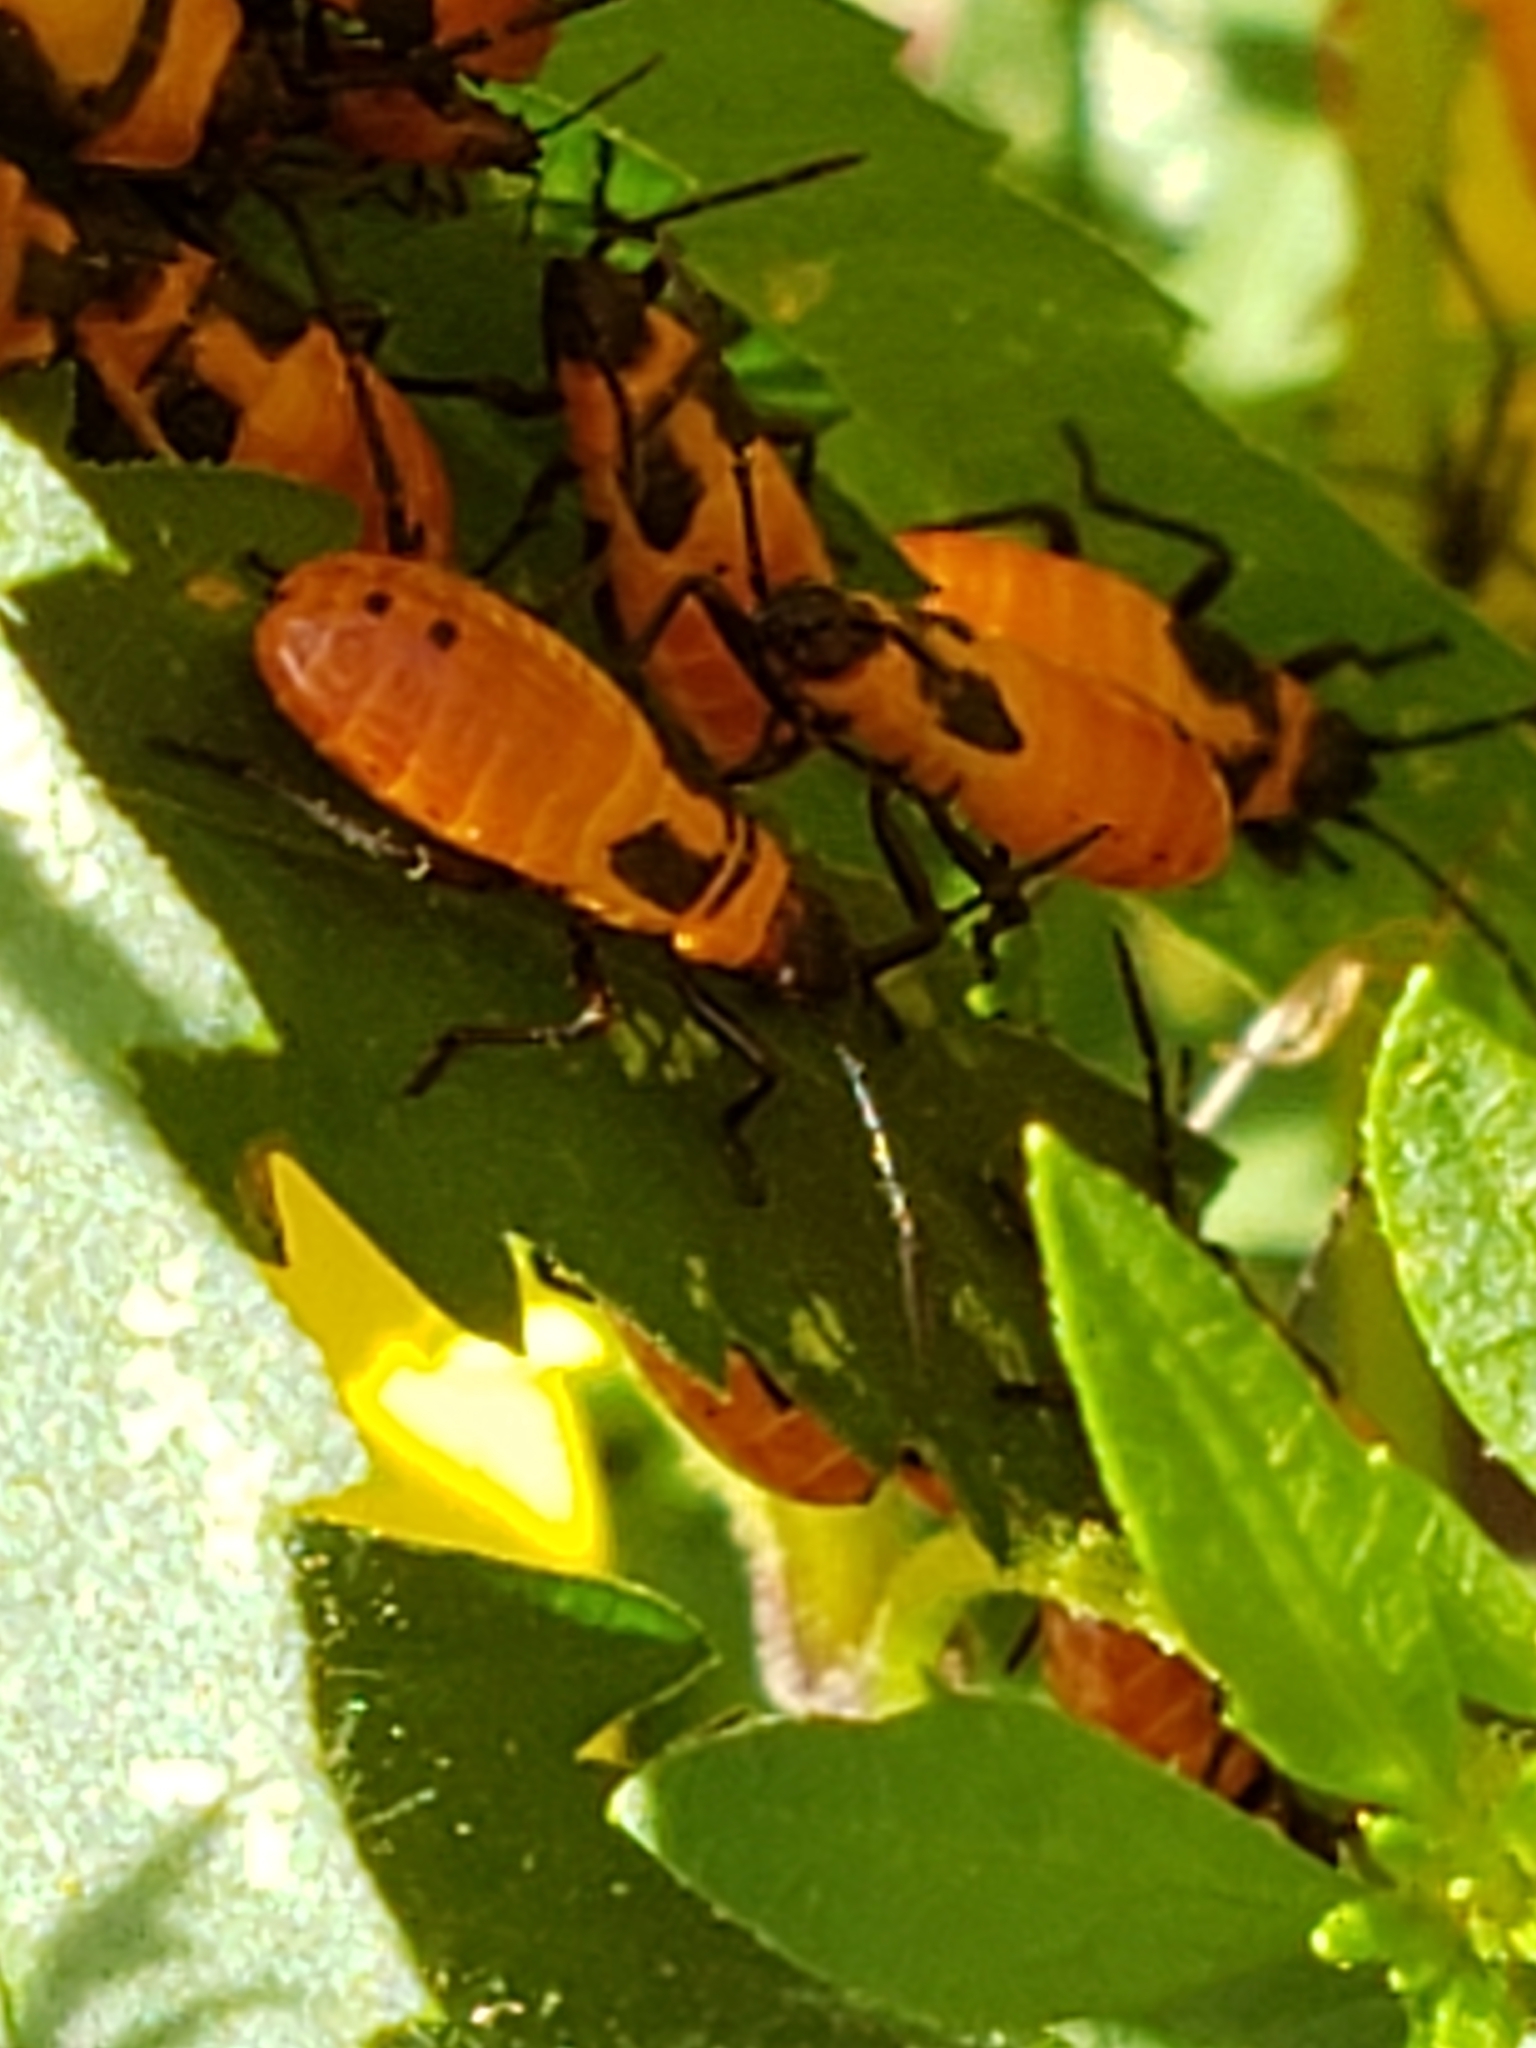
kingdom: Animalia
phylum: Arthropoda
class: Insecta
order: Hemiptera
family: Lygaeidae
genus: Oncopeltus
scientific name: Oncopeltus fasciatus
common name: Large milkweed bug
